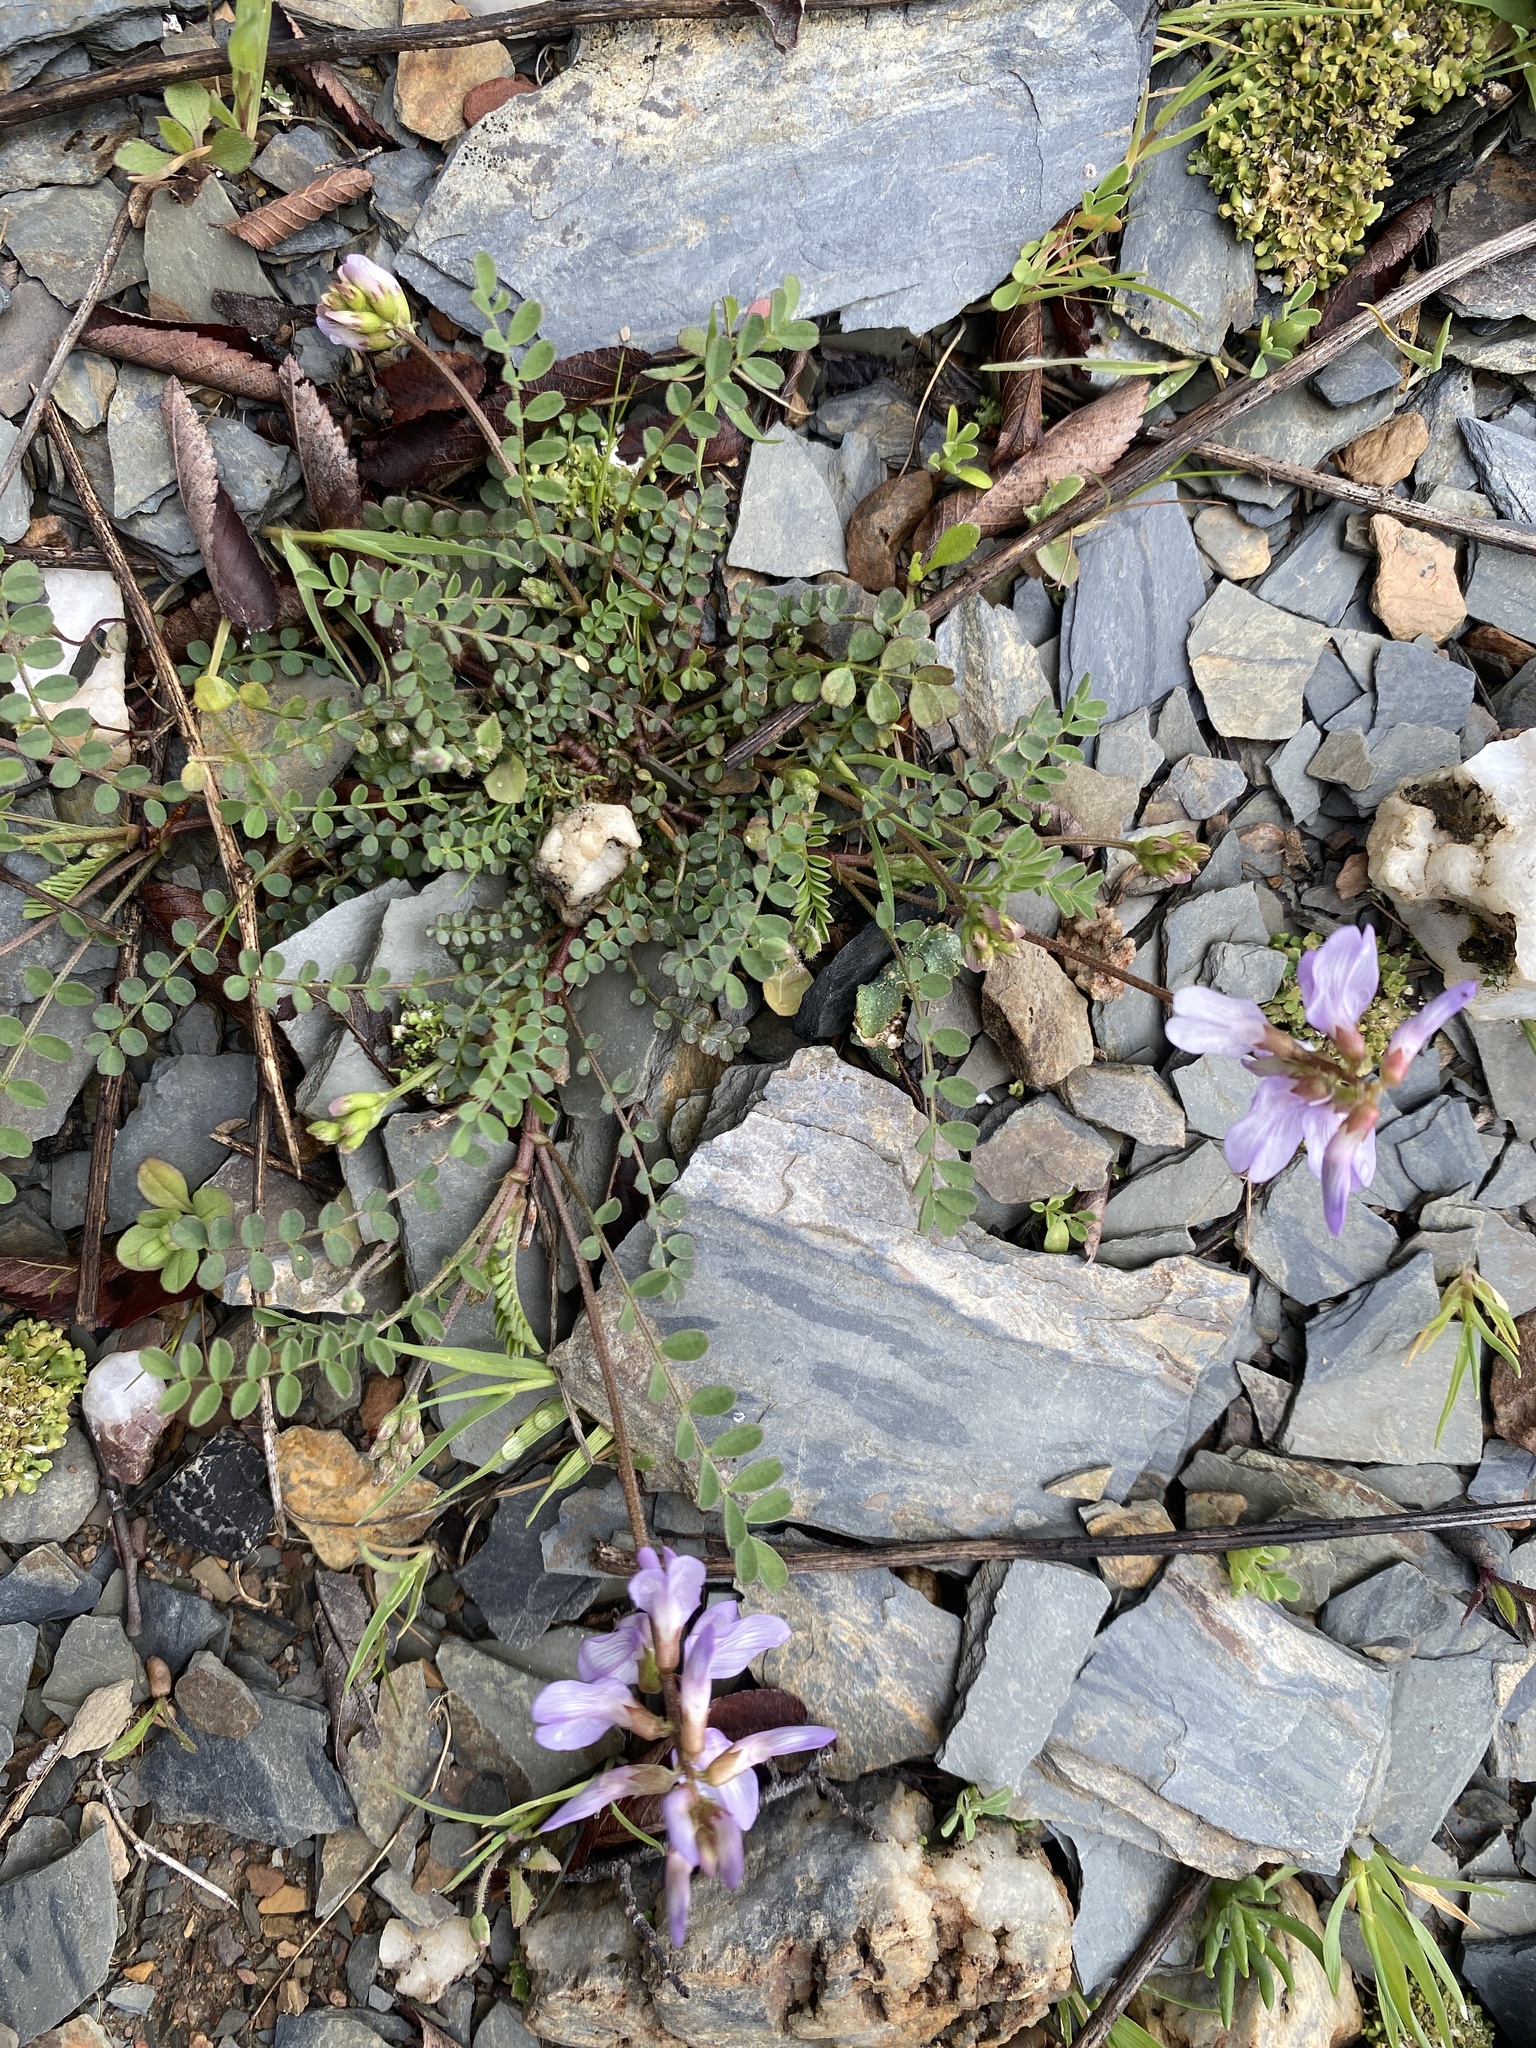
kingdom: Plantae
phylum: Tracheophyta
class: Magnoliopsida
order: Fabales
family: Fabaceae
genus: Astragalus
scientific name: Astragalus distortus
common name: Ozark milk-vetch
